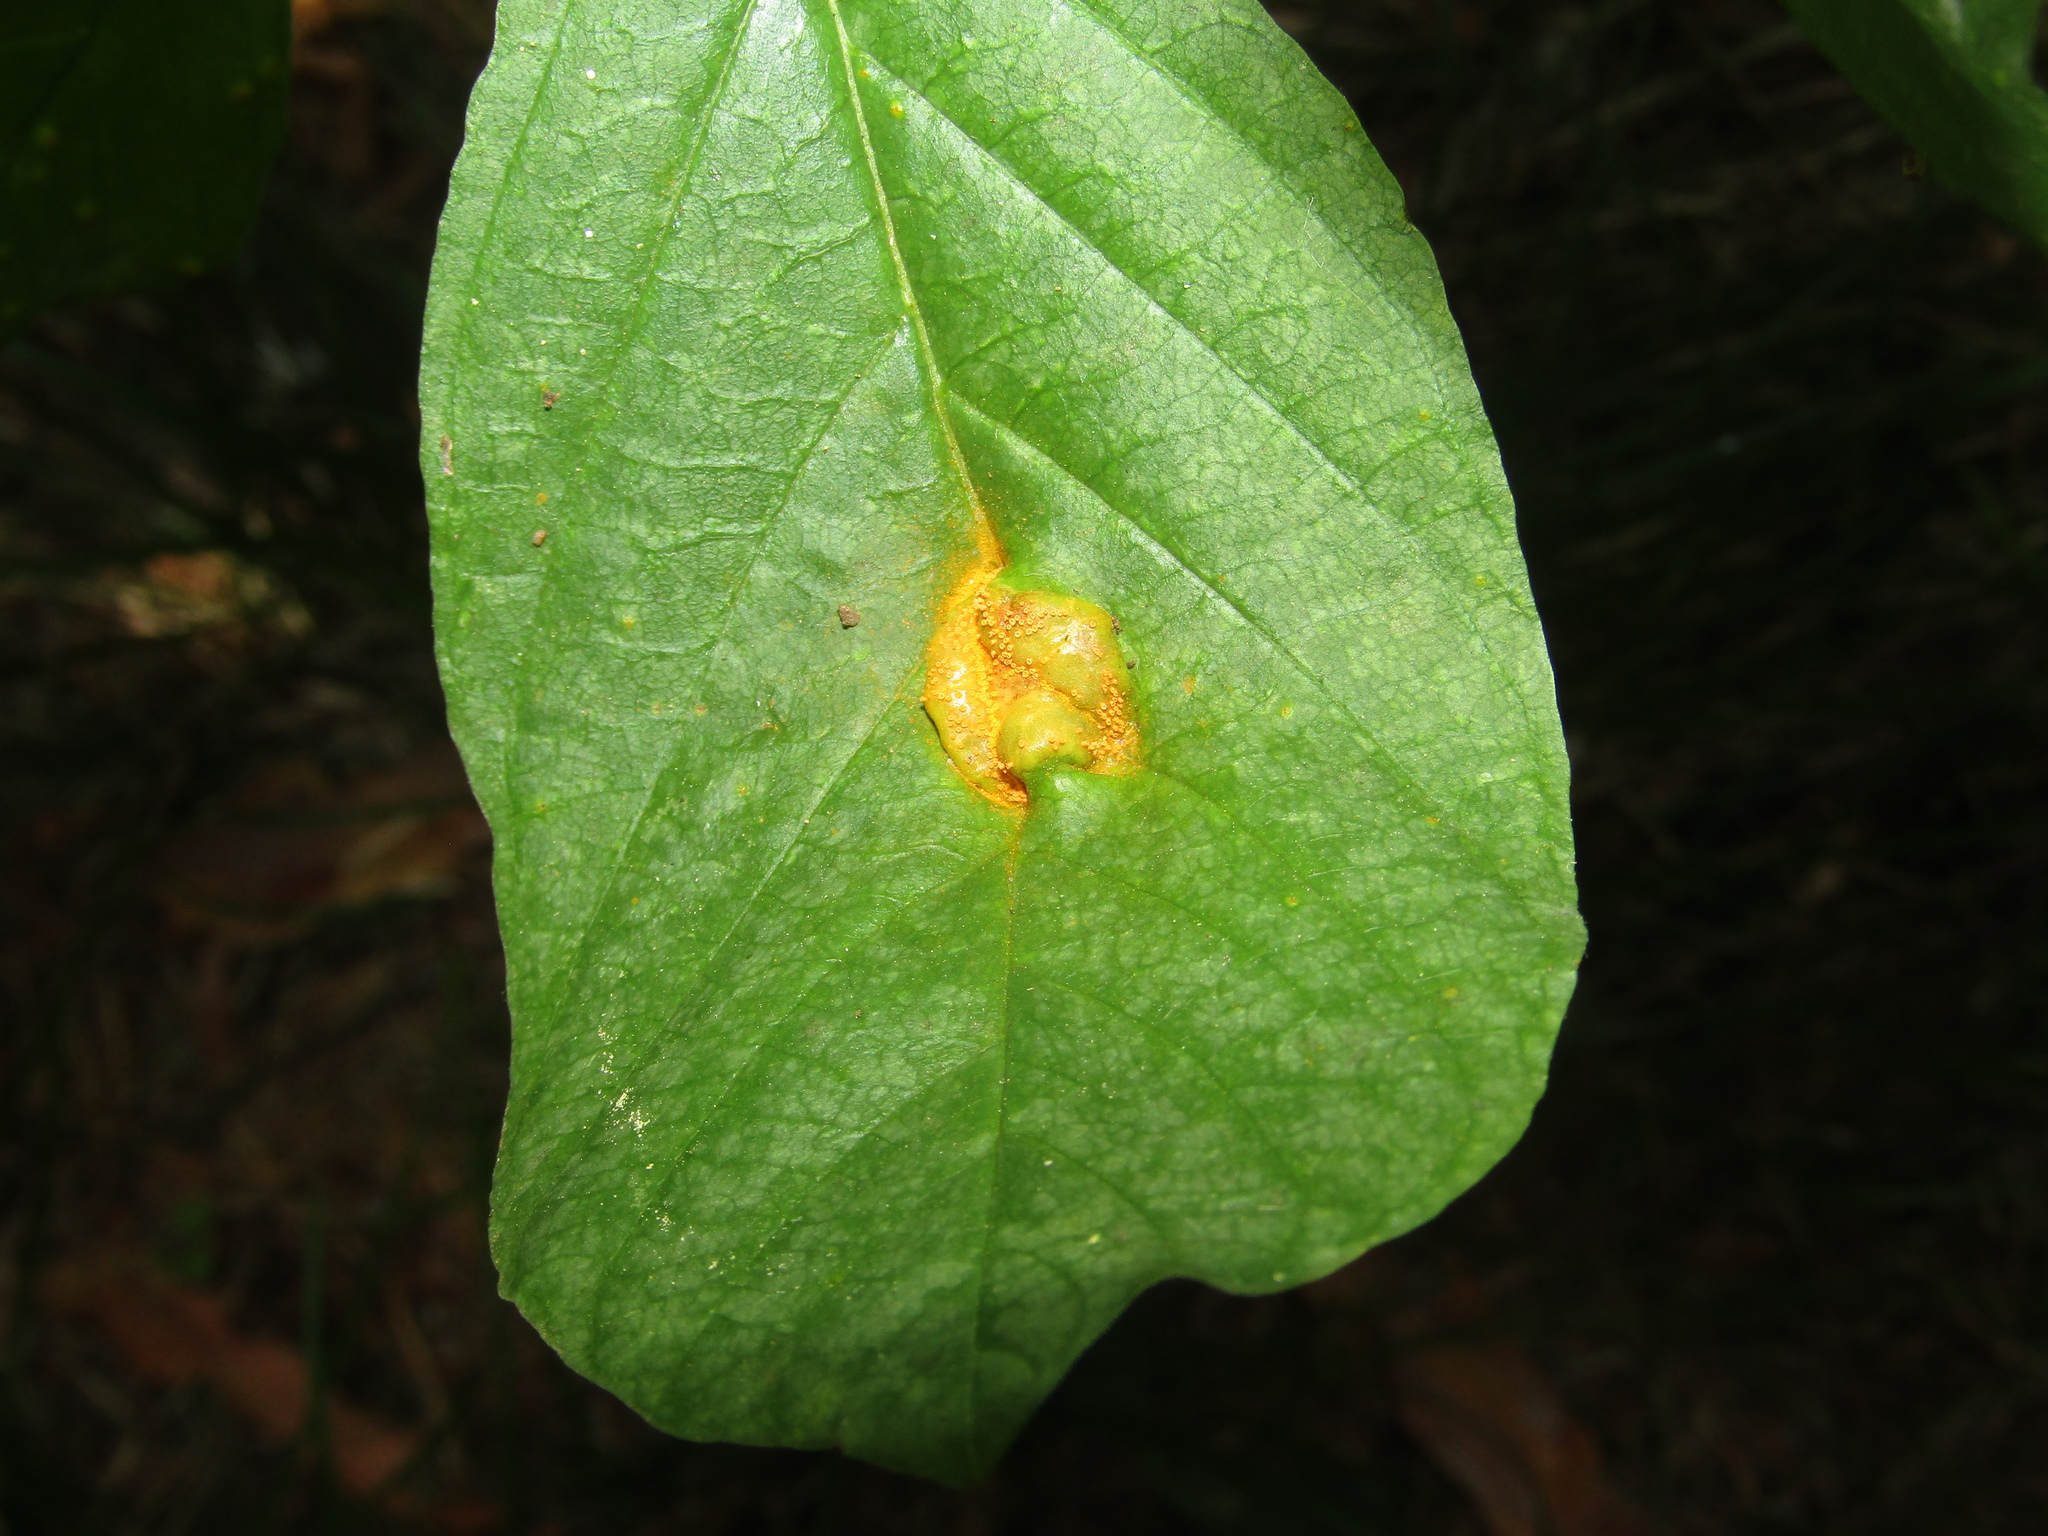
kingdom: Fungi
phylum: Basidiomycota
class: Pucciniomycetes
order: Pucciniales
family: Pucciniaceae
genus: Puccinia
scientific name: Puccinia coronata
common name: Crown rust
